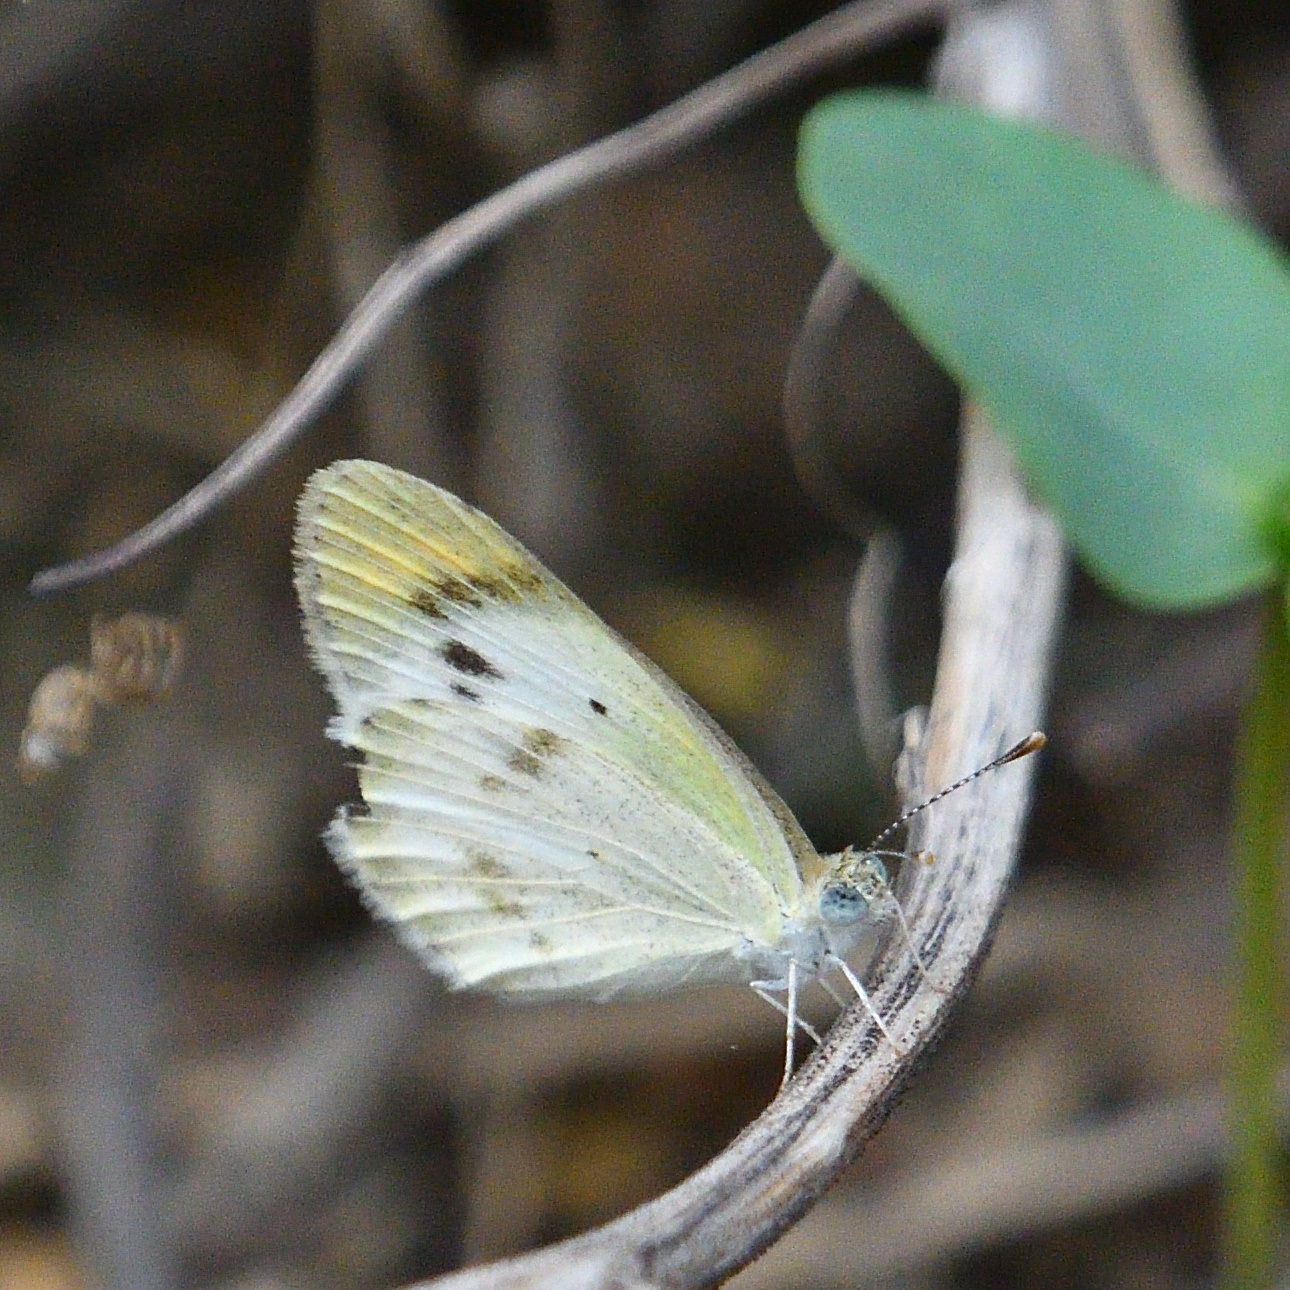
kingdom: Animalia
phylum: Arthropoda
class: Insecta
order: Lepidoptera
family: Pieridae
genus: Colotis
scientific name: Colotis etrida
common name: Little orange tip
